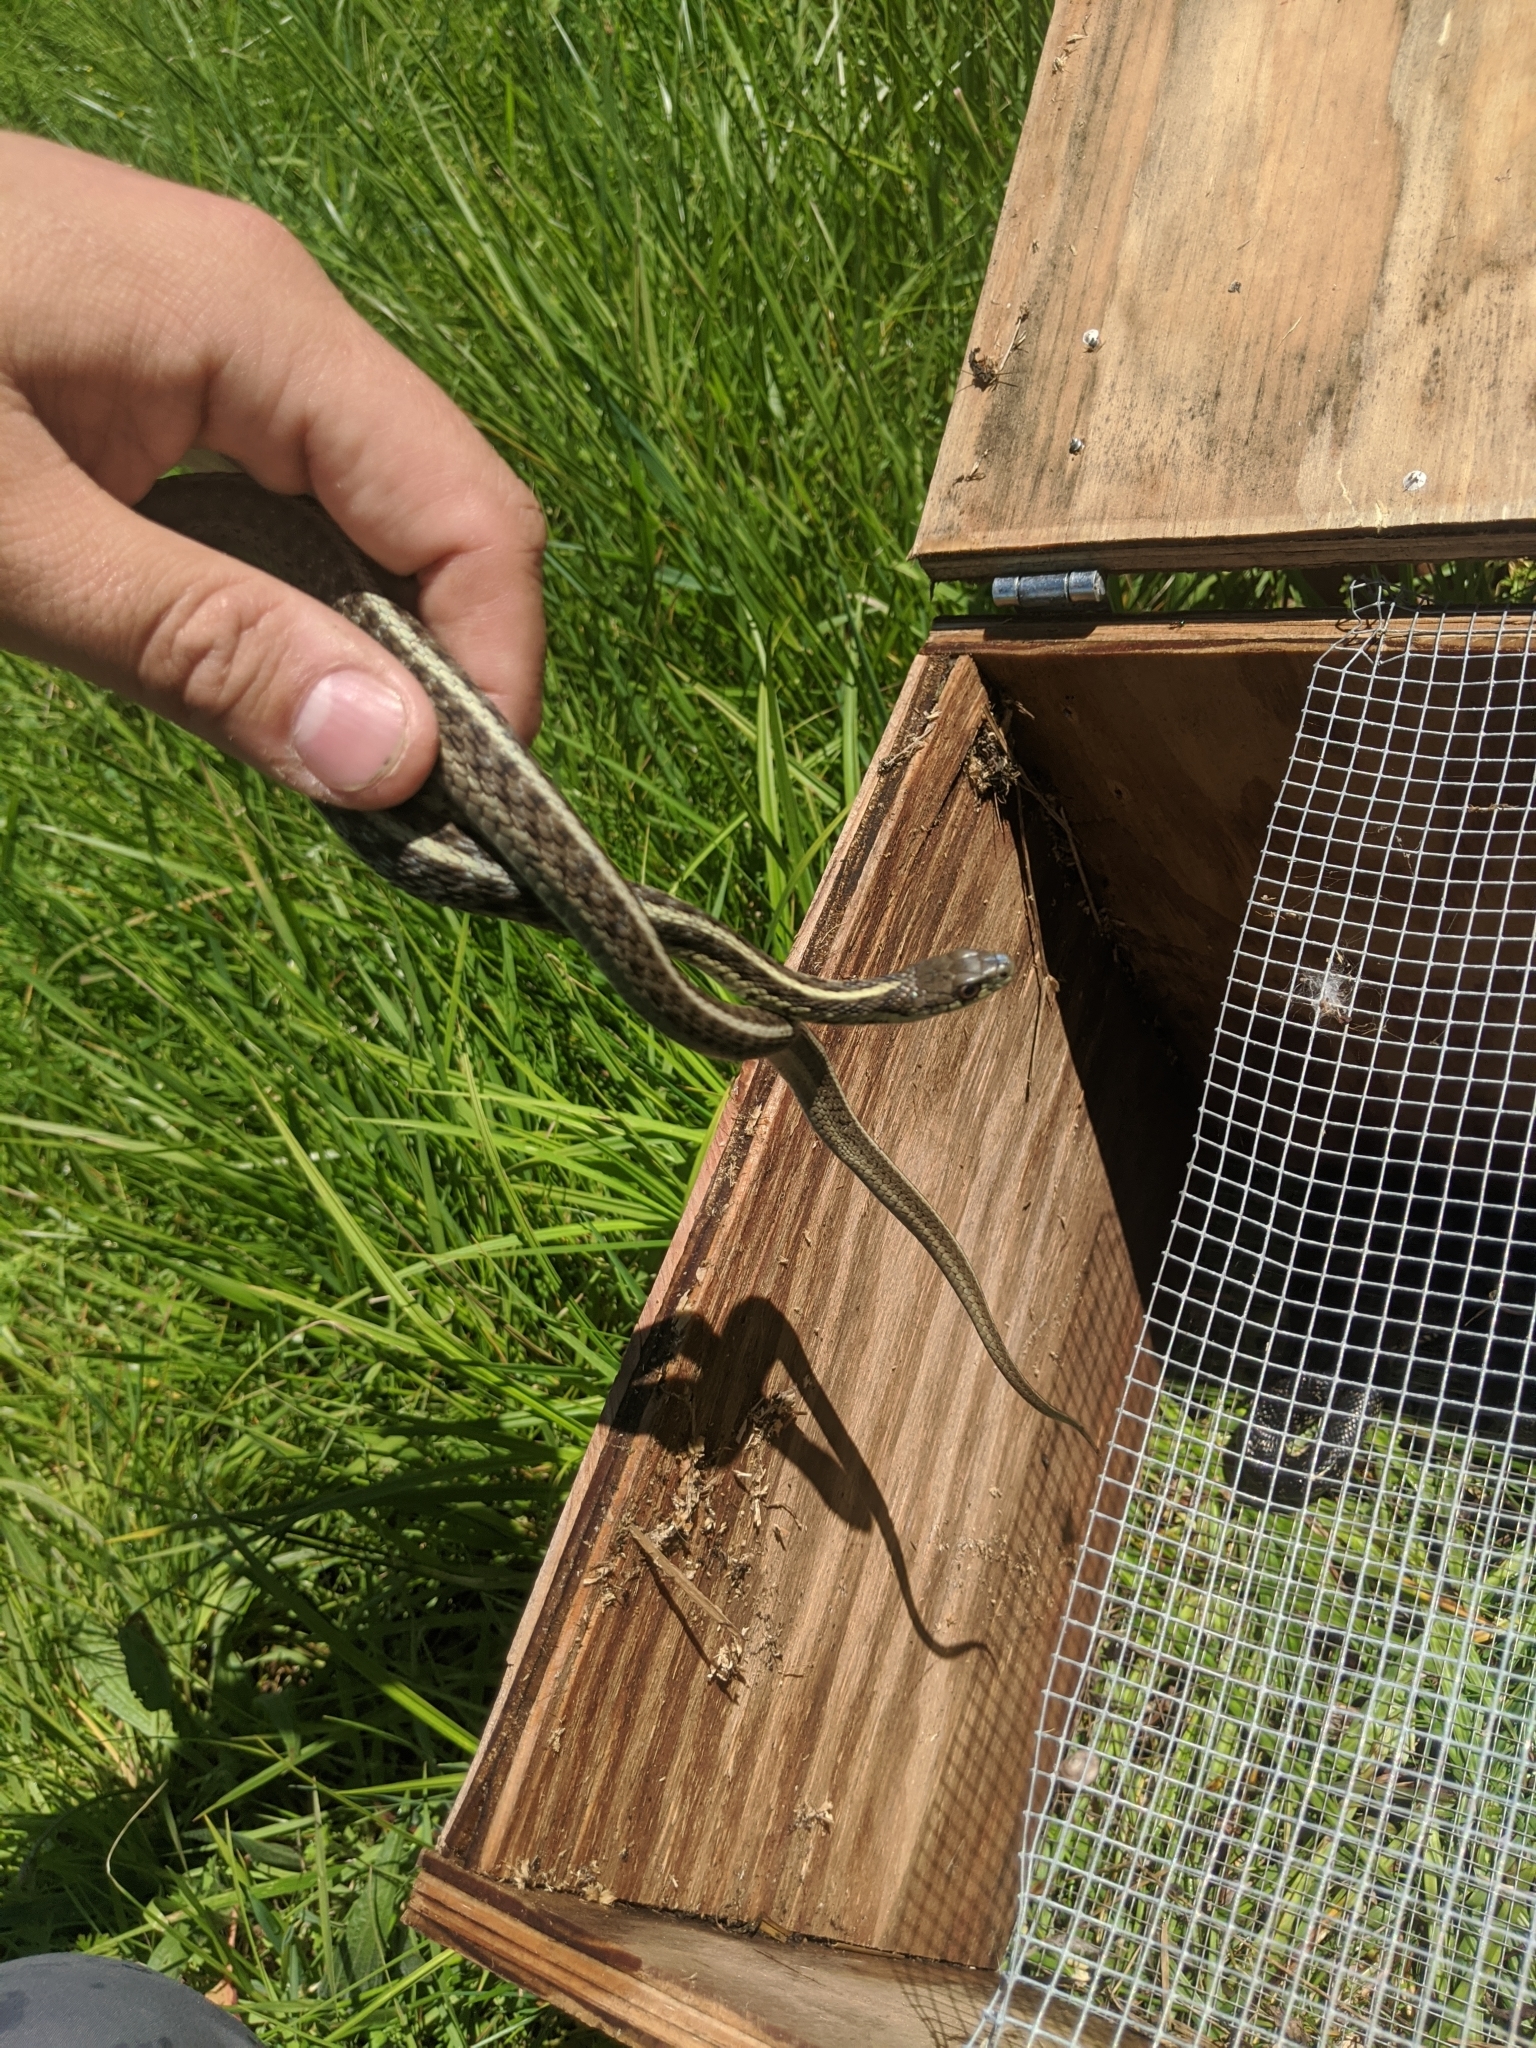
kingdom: Animalia
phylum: Chordata
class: Squamata
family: Colubridae
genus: Thamnophis
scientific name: Thamnophis sirtalis
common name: Common garter snake
